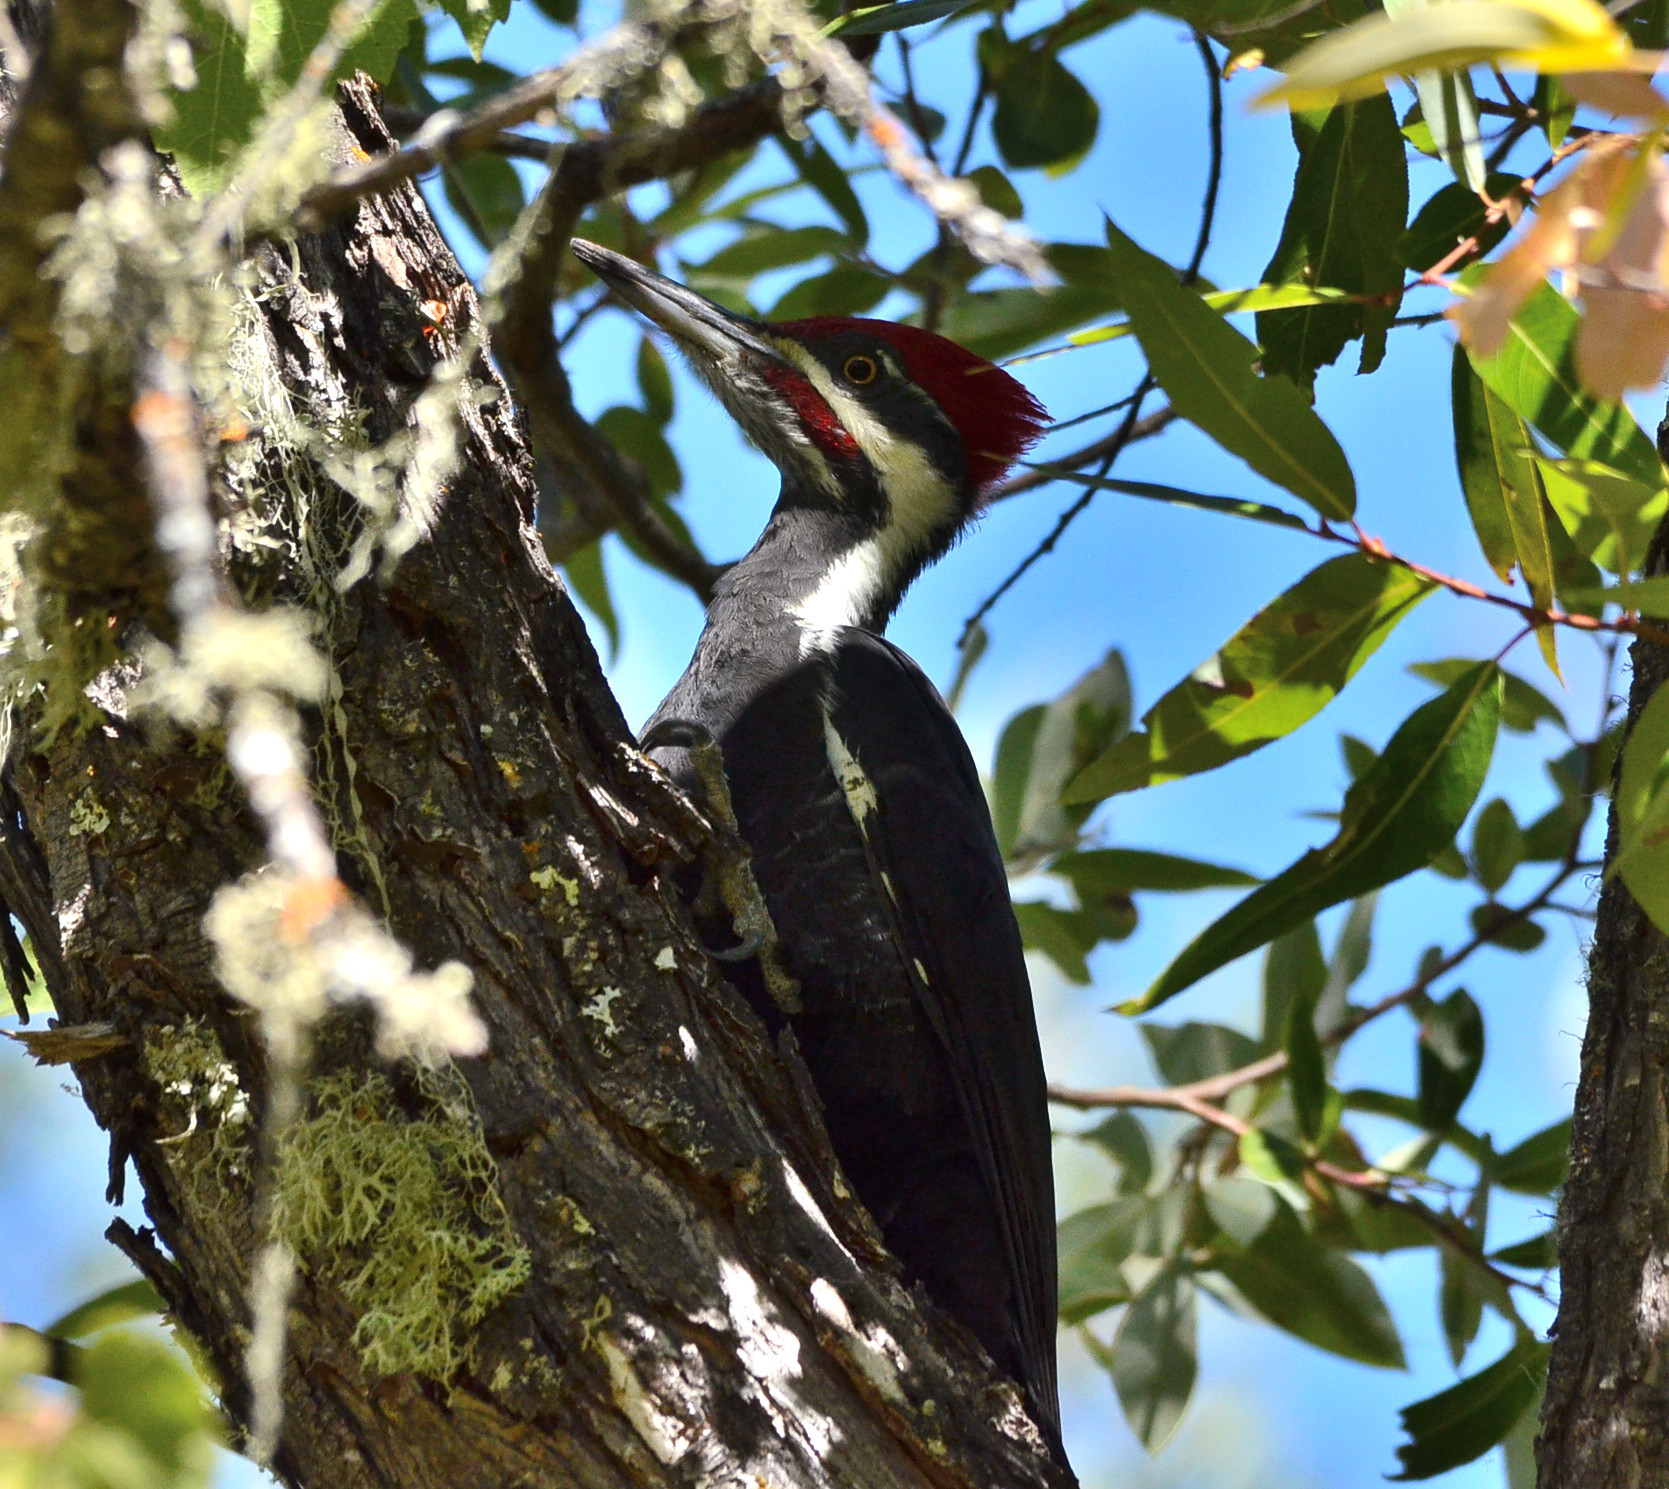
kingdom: Animalia
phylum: Chordata
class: Aves
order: Piciformes
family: Picidae
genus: Dryocopus
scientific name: Dryocopus pileatus
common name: Pileated woodpecker
